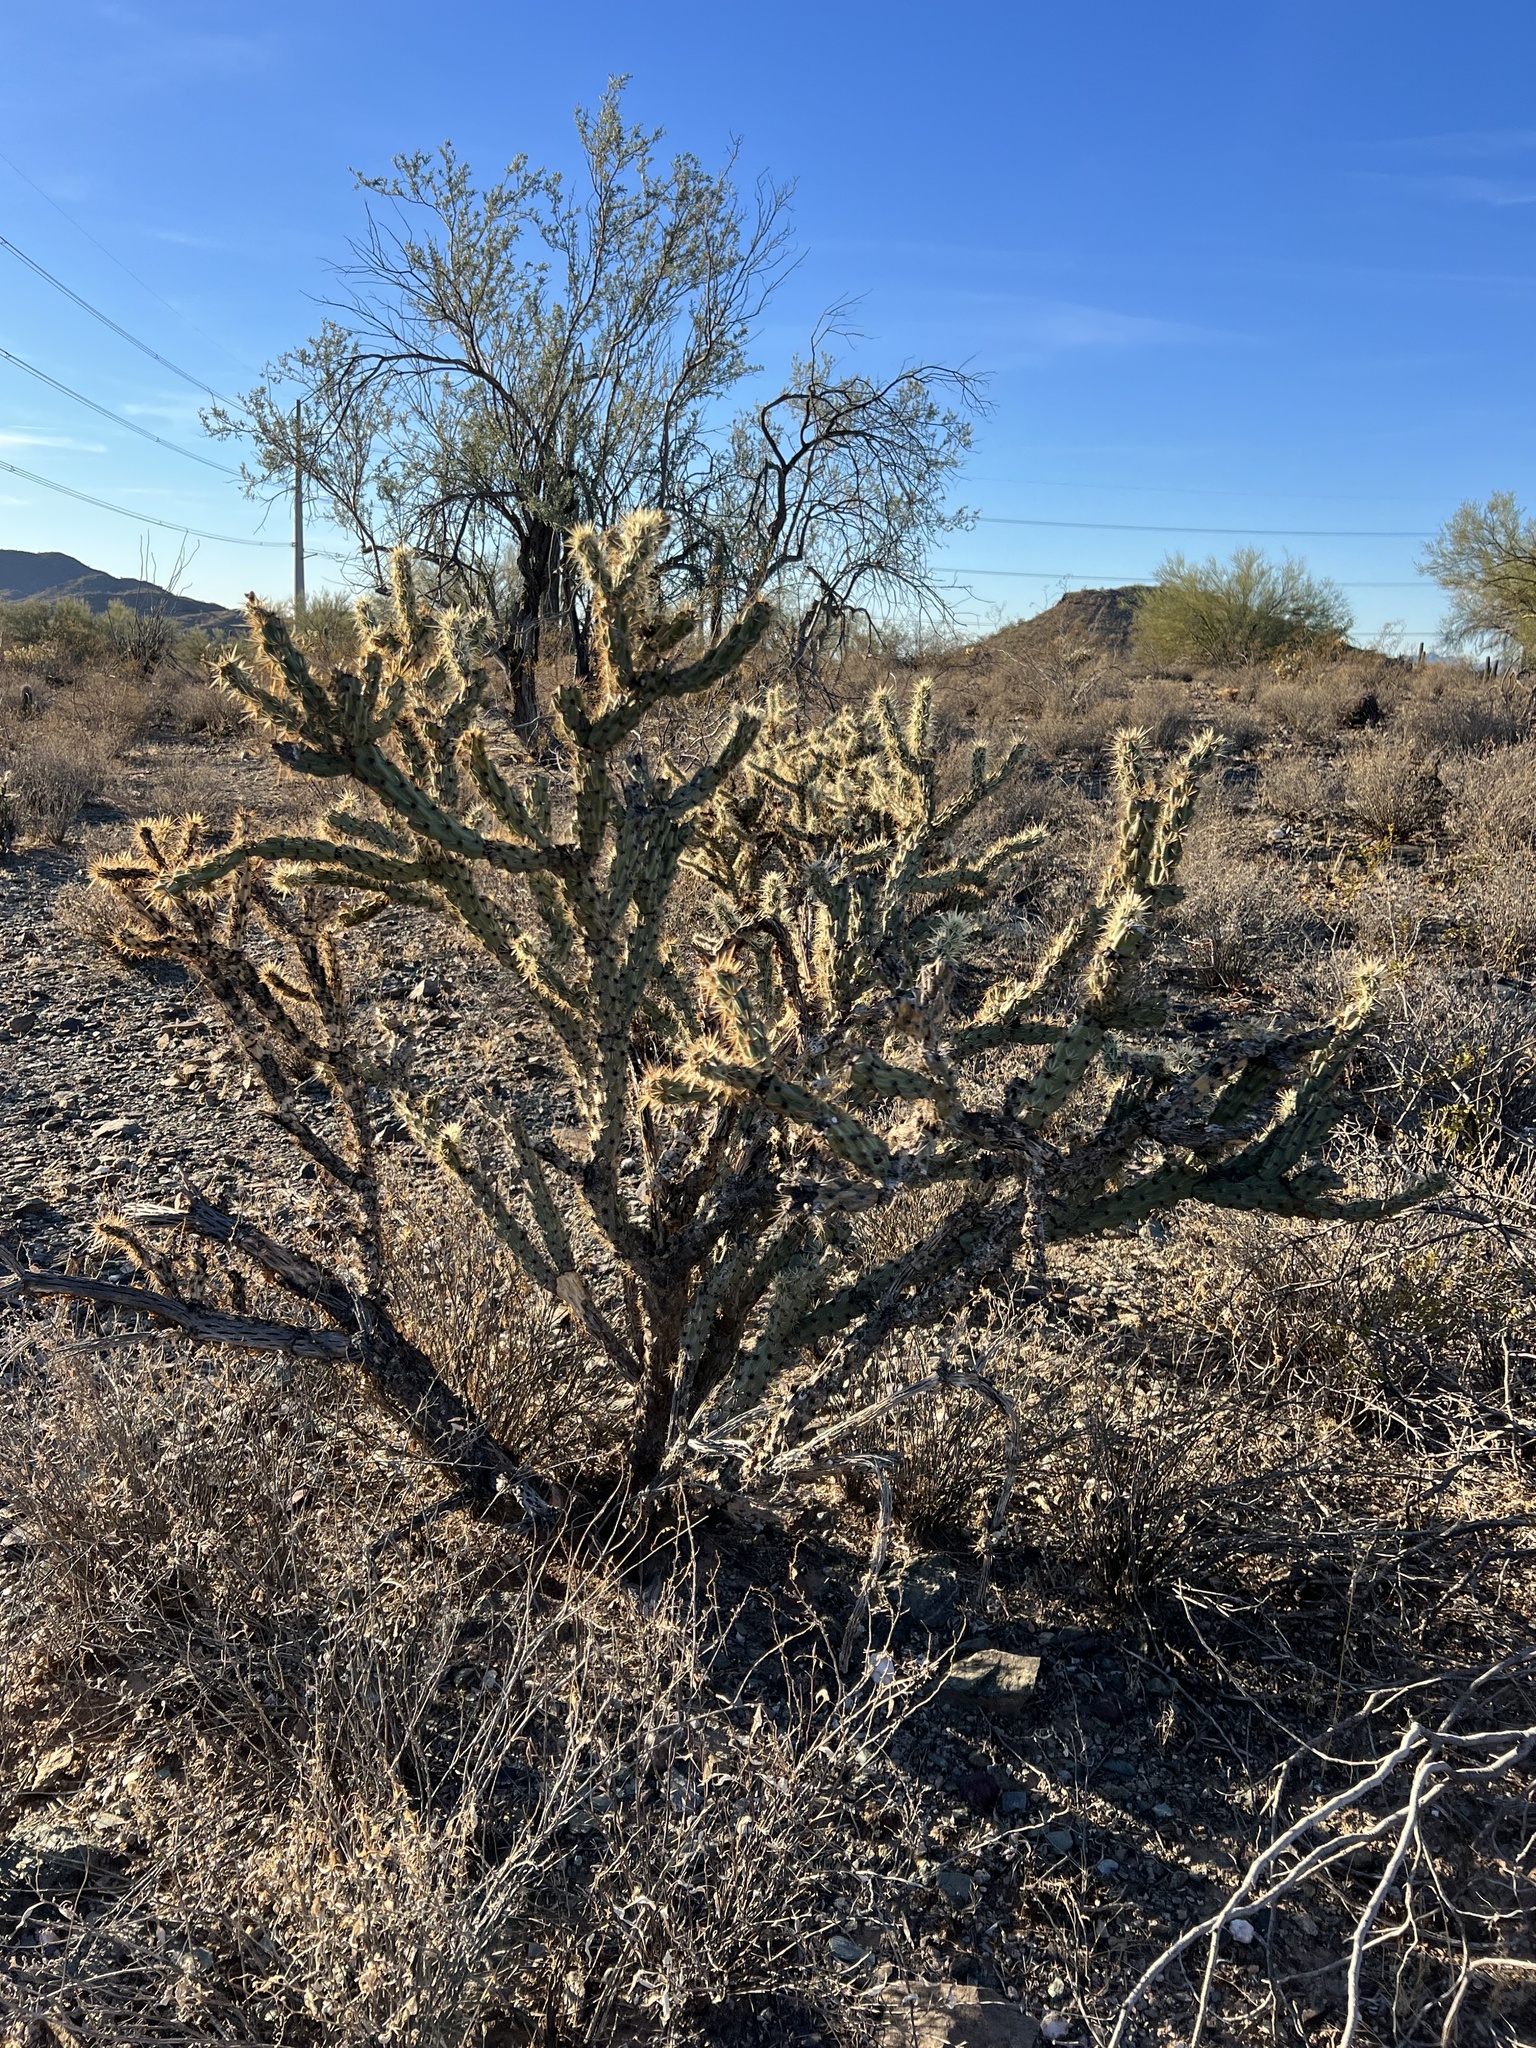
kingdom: Plantae
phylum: Tracheophyta
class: Magnoliopsida
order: Caryophyllales
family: Cactaceae
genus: Cylindropuntia
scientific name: Cylindropuntia acanthocarpa
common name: Buckhorn cholla
